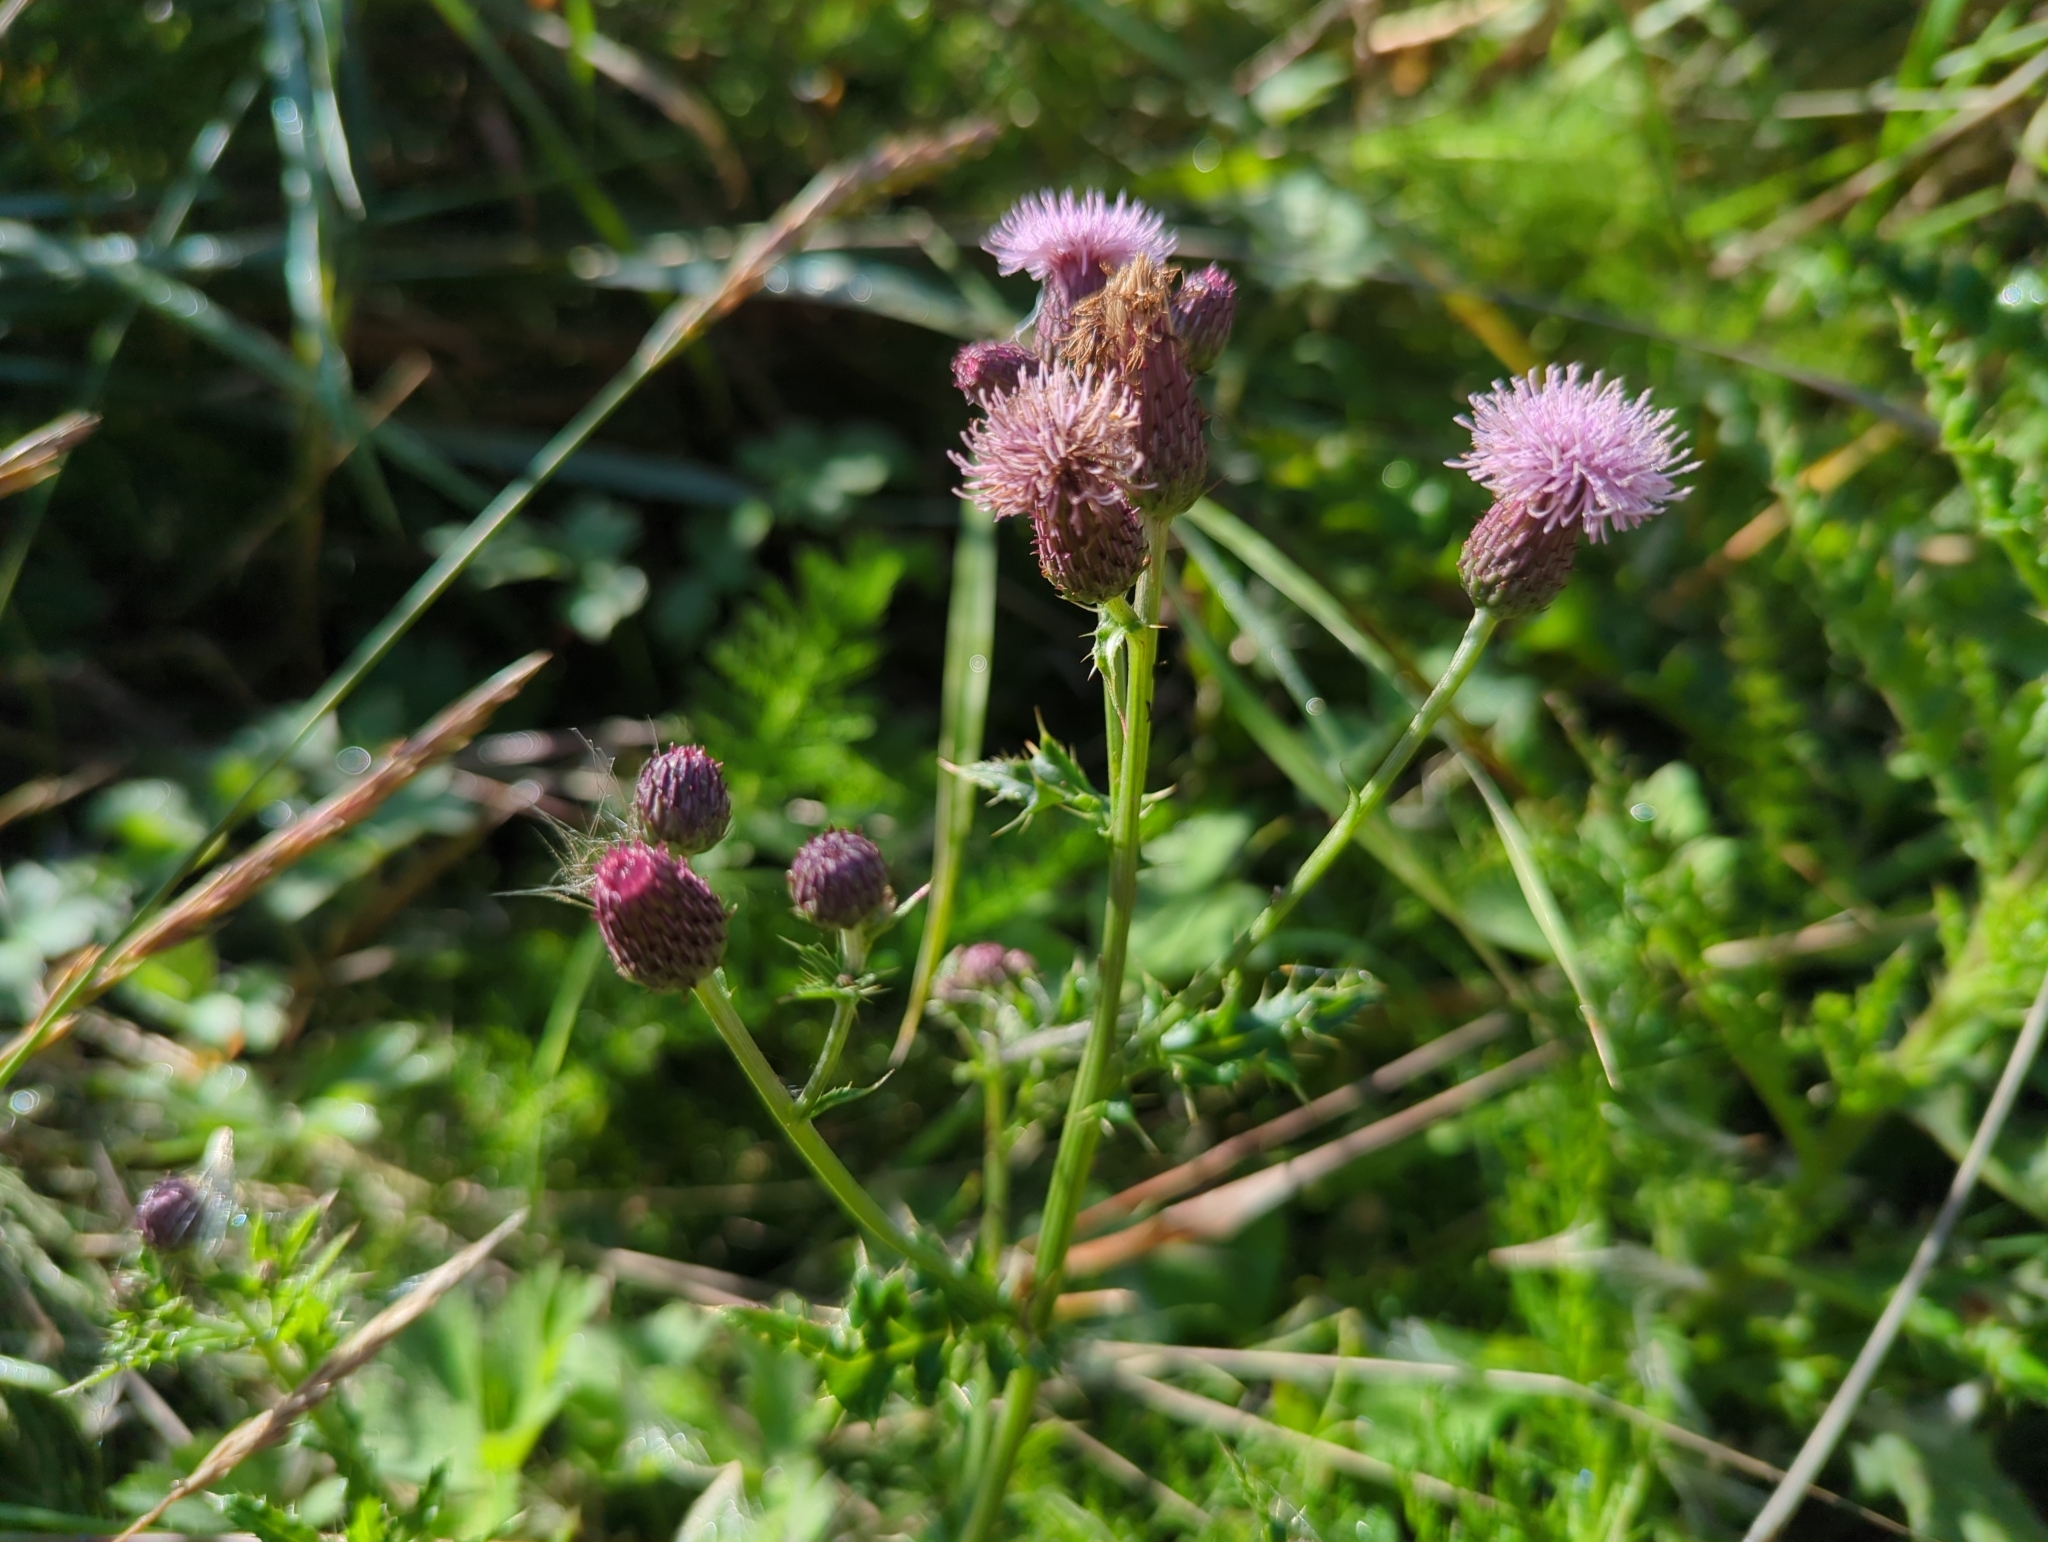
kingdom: Plantae
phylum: Tracheophyta
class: Magnoliopsida
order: Asterales
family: Asteraceae
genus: Cirsium
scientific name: Cirsium arvense
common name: Creeping thistle
